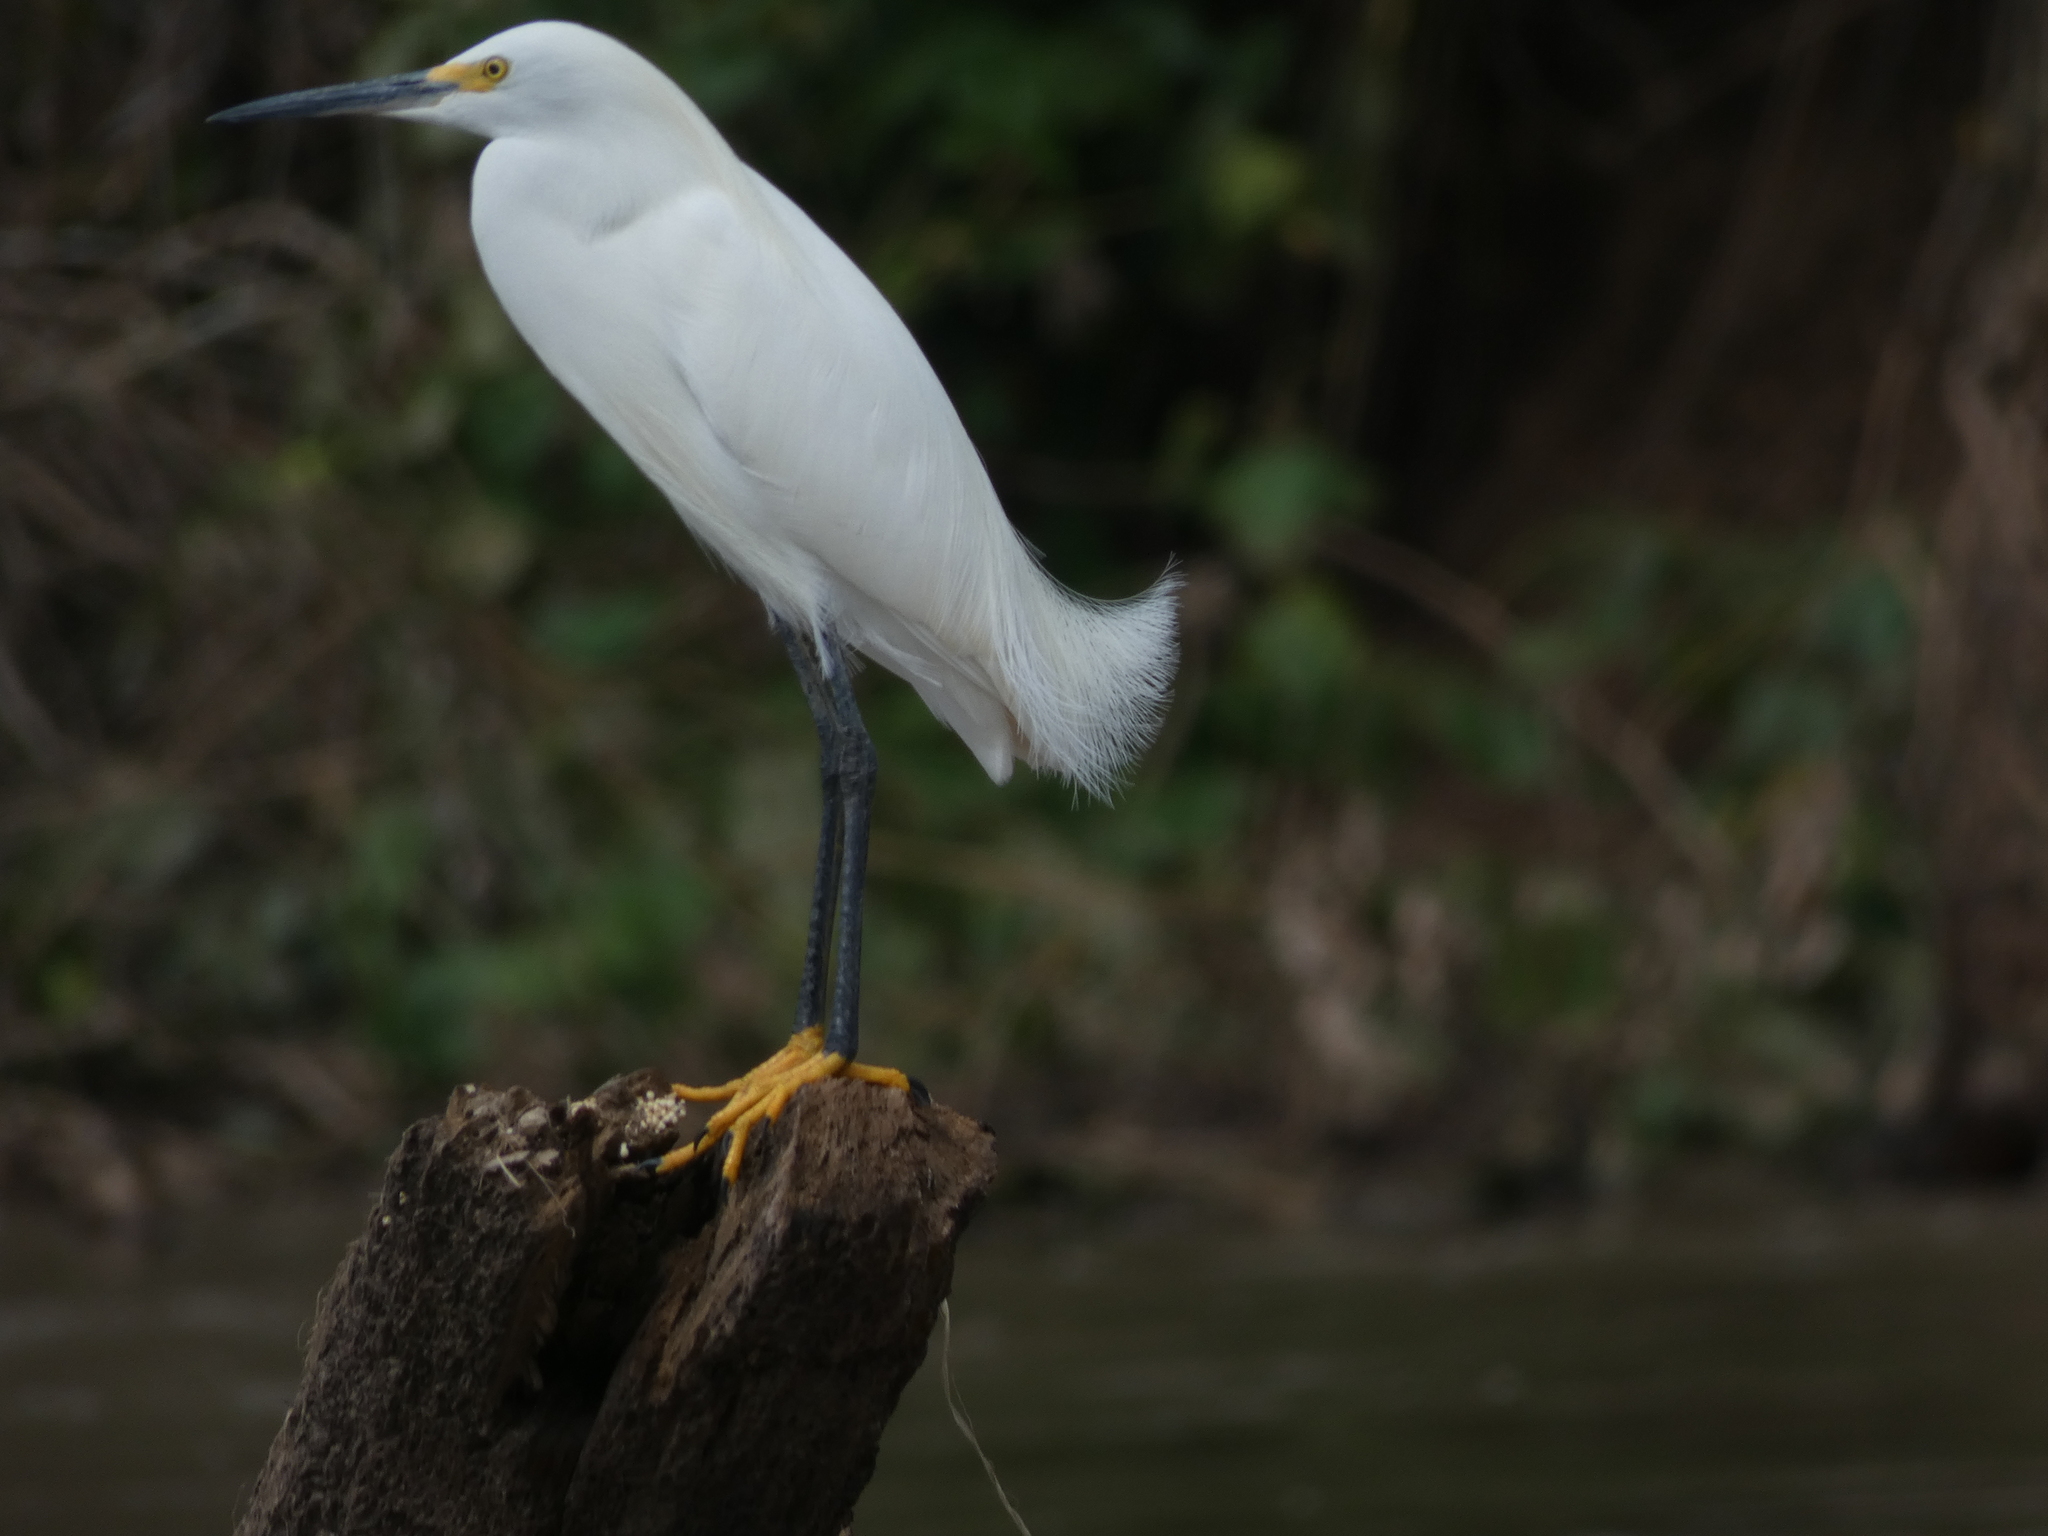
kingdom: Animalia
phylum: Chordata
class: Aves
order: Pelecaniformes
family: Ardeidae
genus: Egretta
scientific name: Egretta thula
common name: Snowy egret
